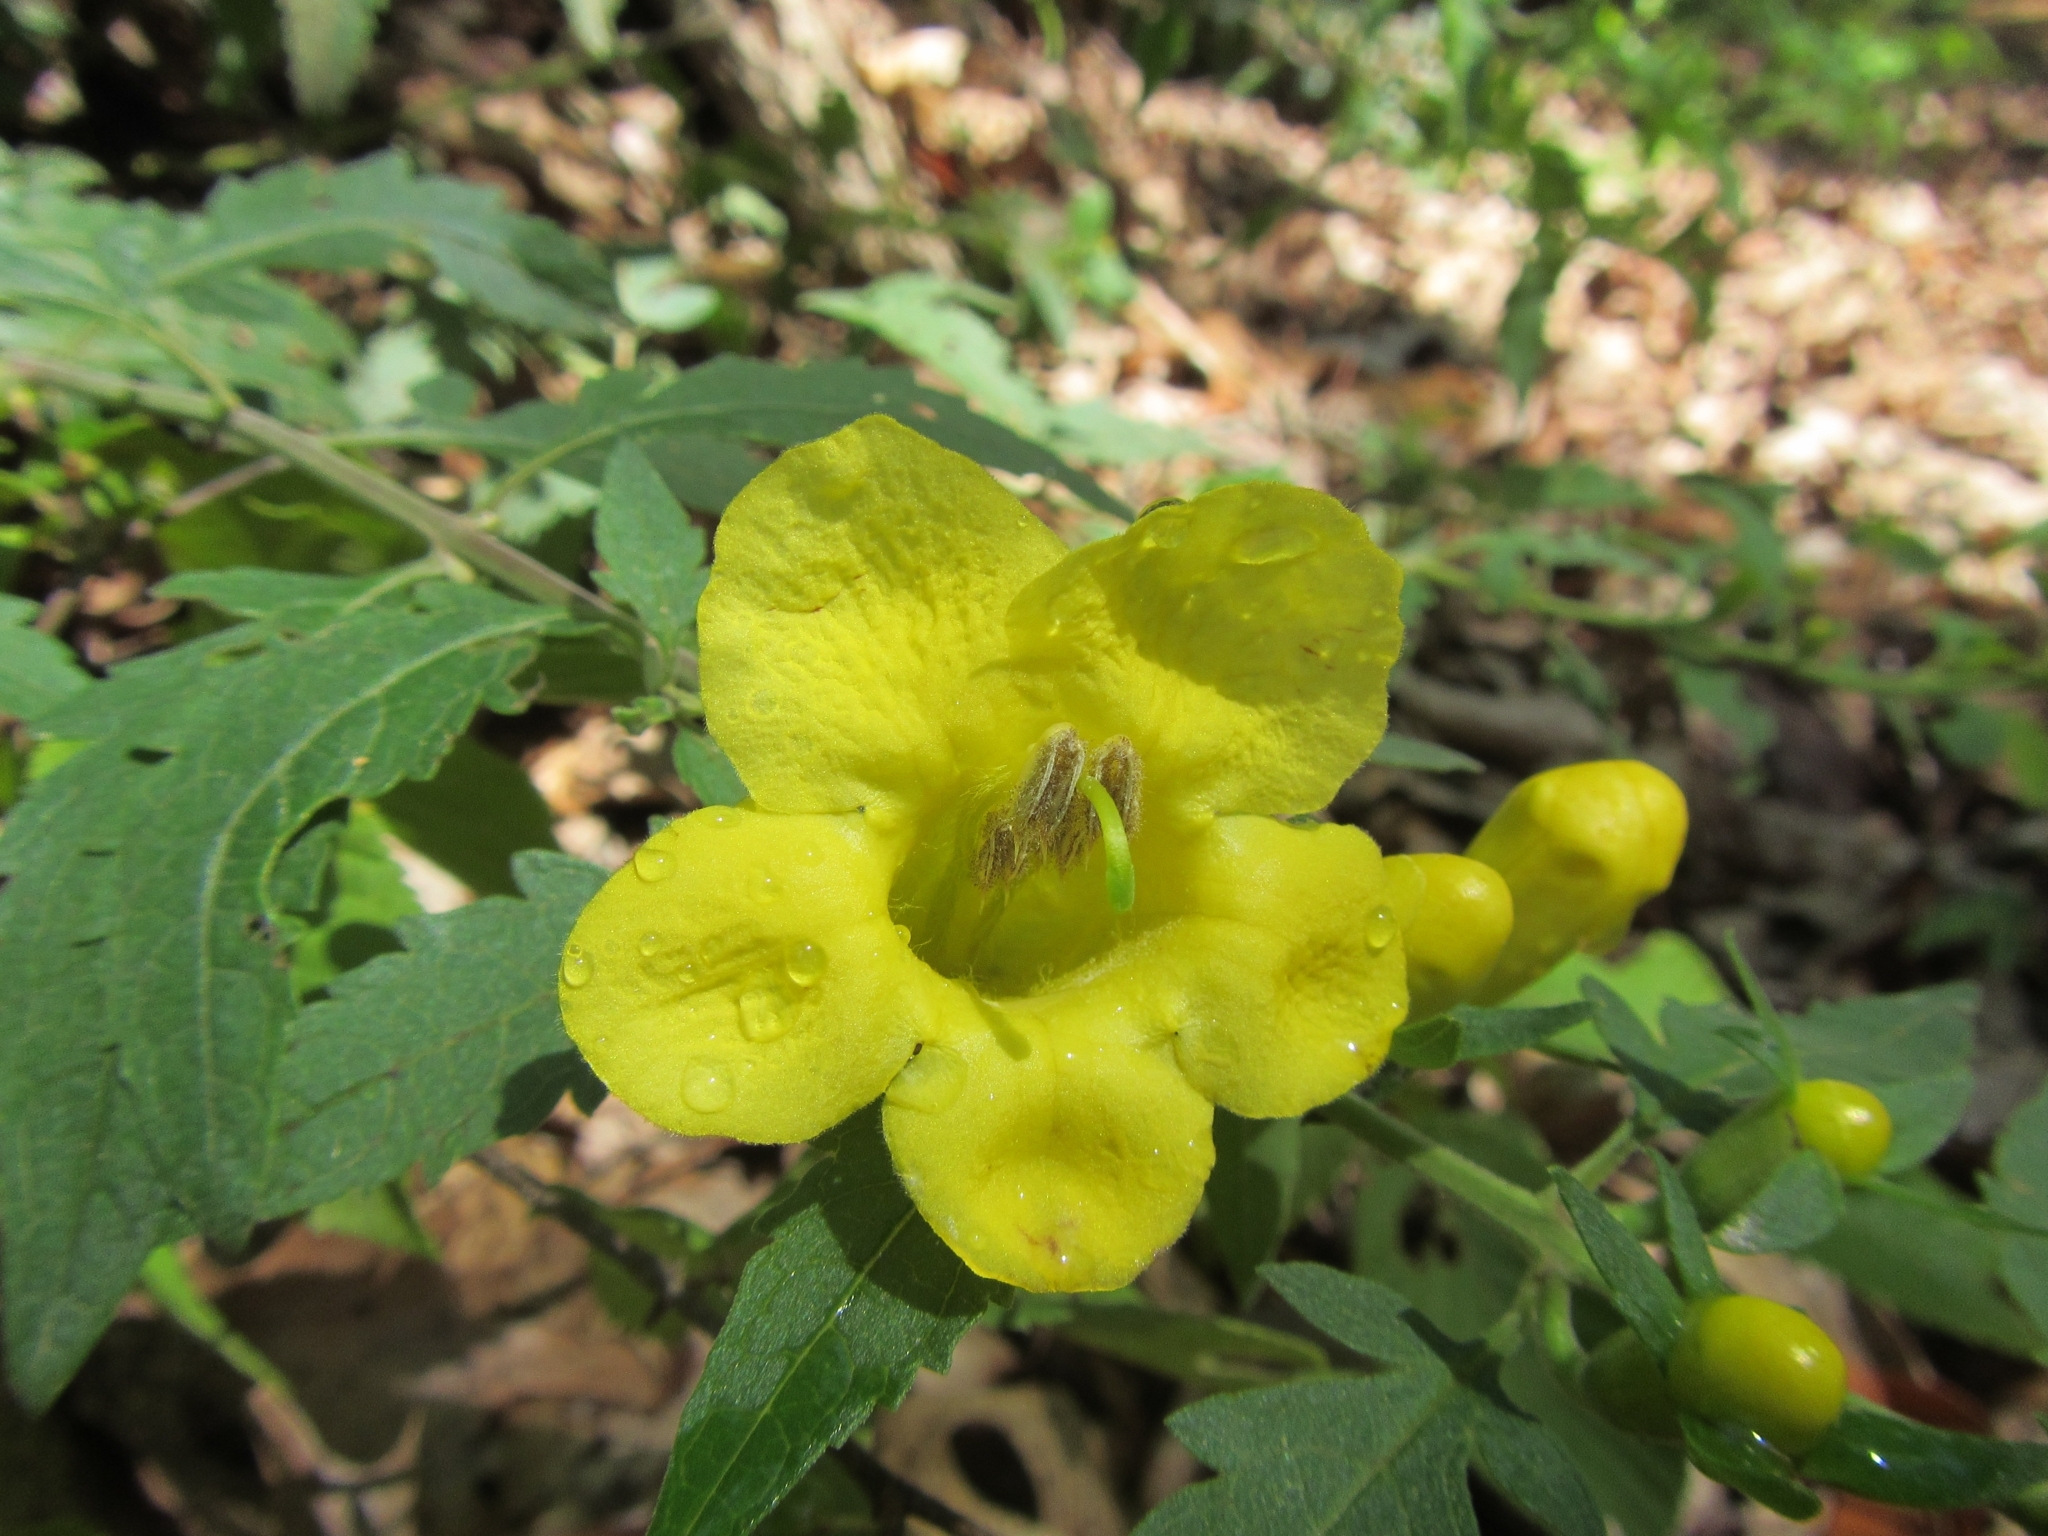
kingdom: Plantae
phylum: Tracheophyta
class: Magnoliopsida
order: Lamiales
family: Orobanchaceae
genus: Aureolaria
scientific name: Aureolaria grandiflora
